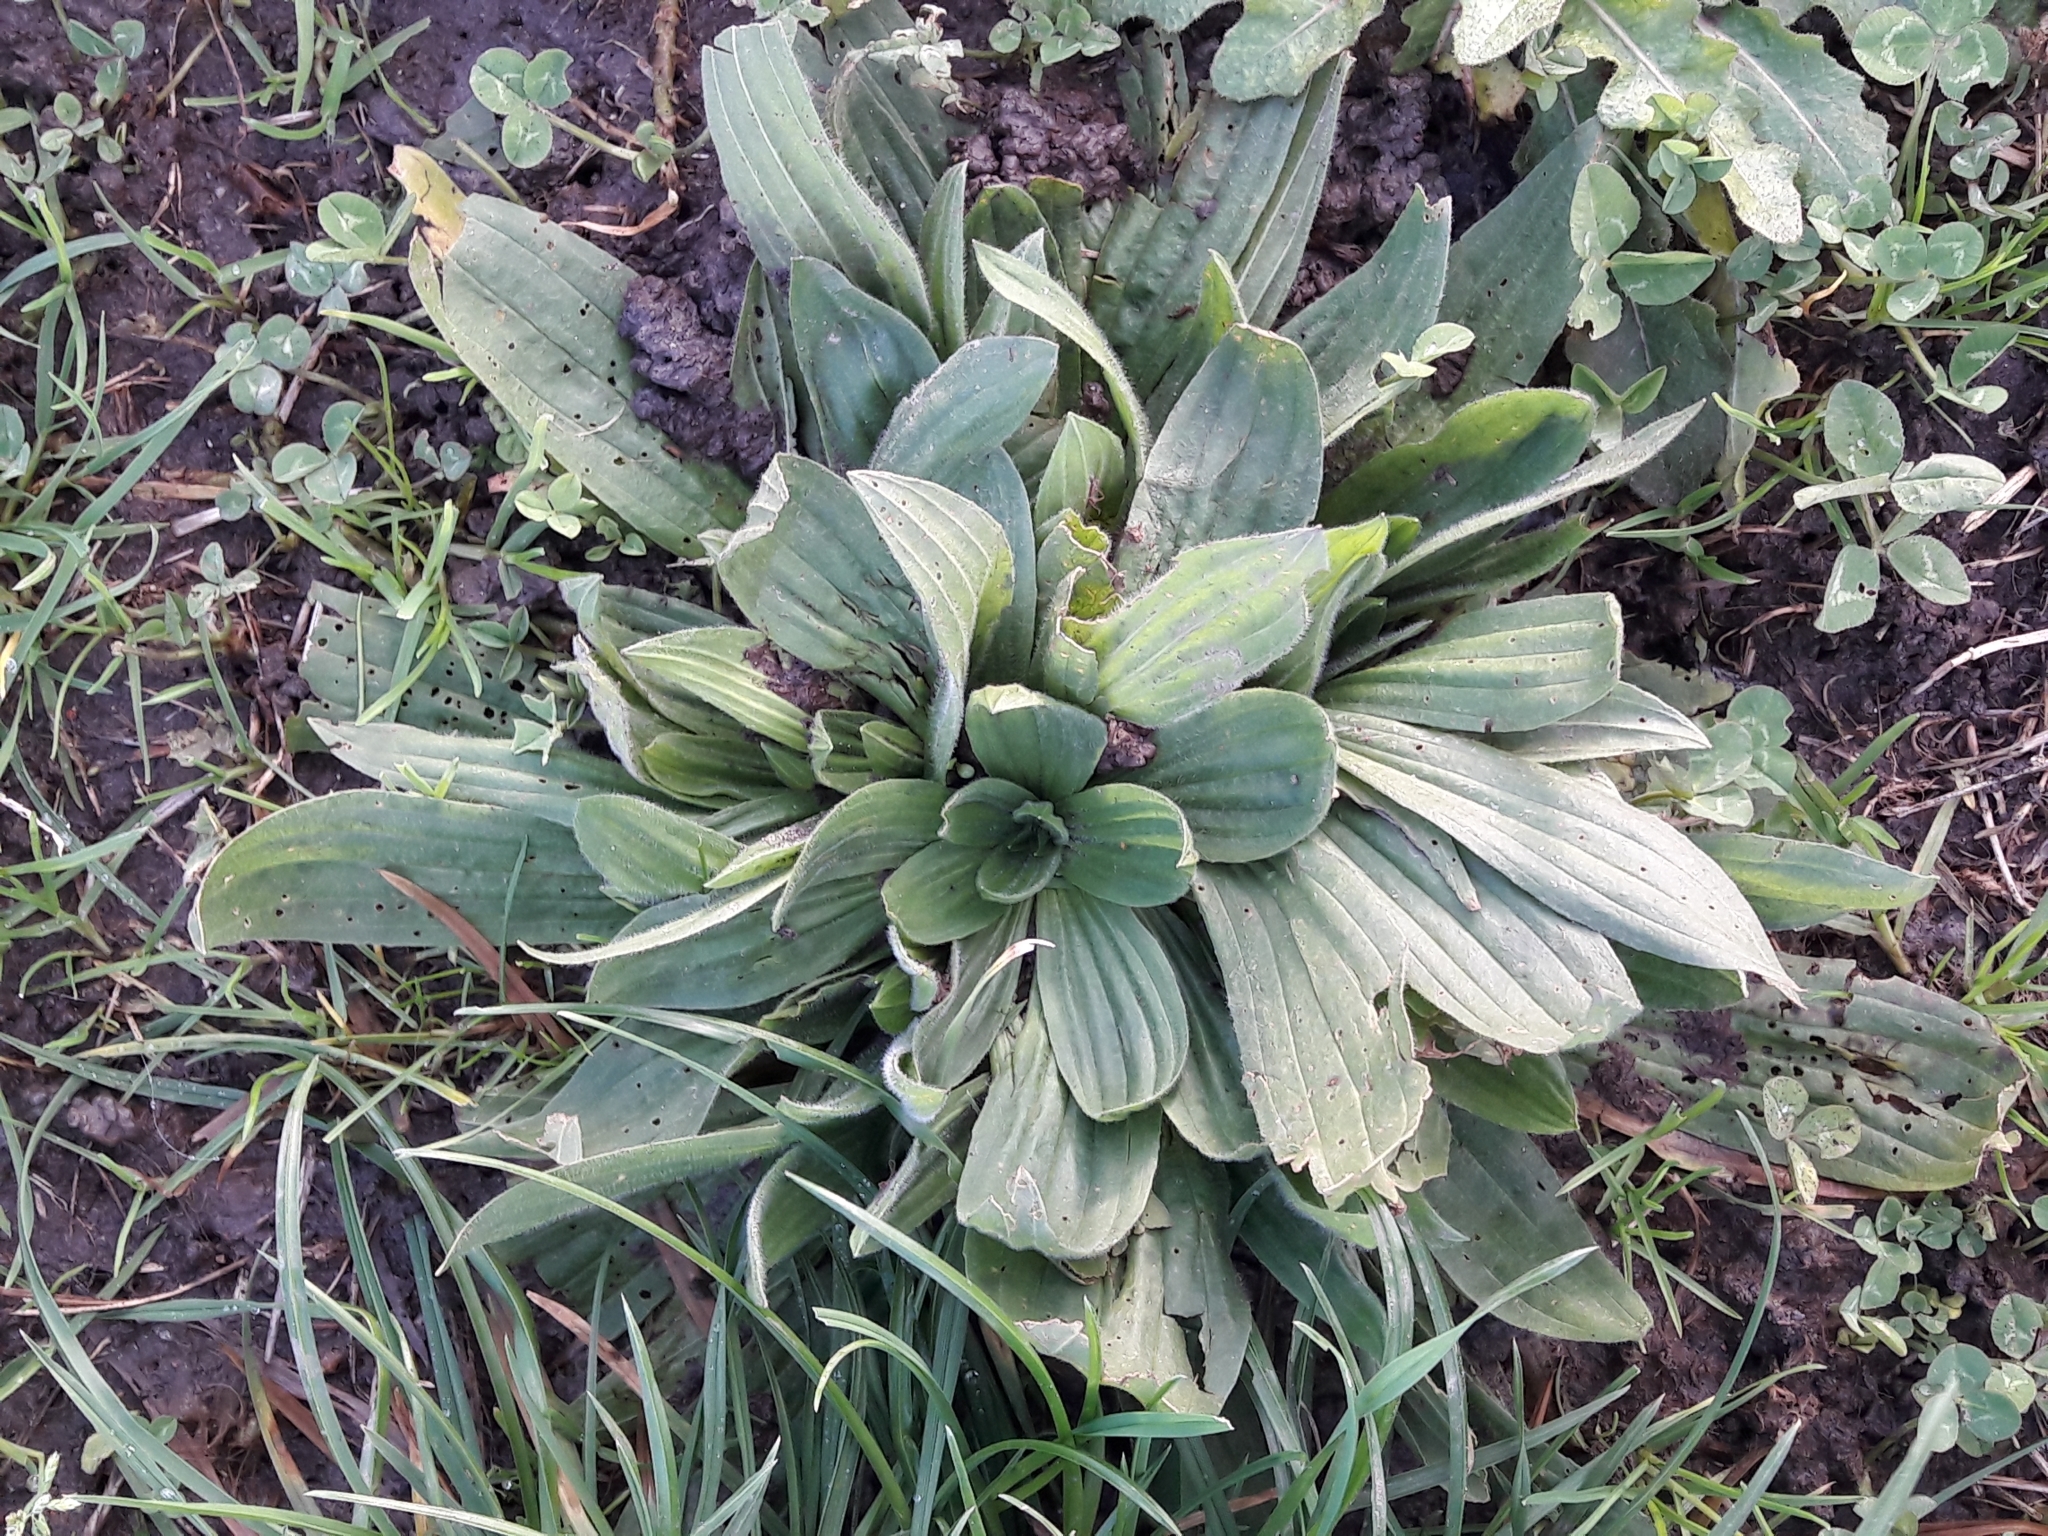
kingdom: Plantae
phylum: Tracheophyta
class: Magnoliopsida
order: Lamiales
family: Plantaginaceae
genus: Plantago
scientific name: Plantago lanceolata
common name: Ribwort plantain
